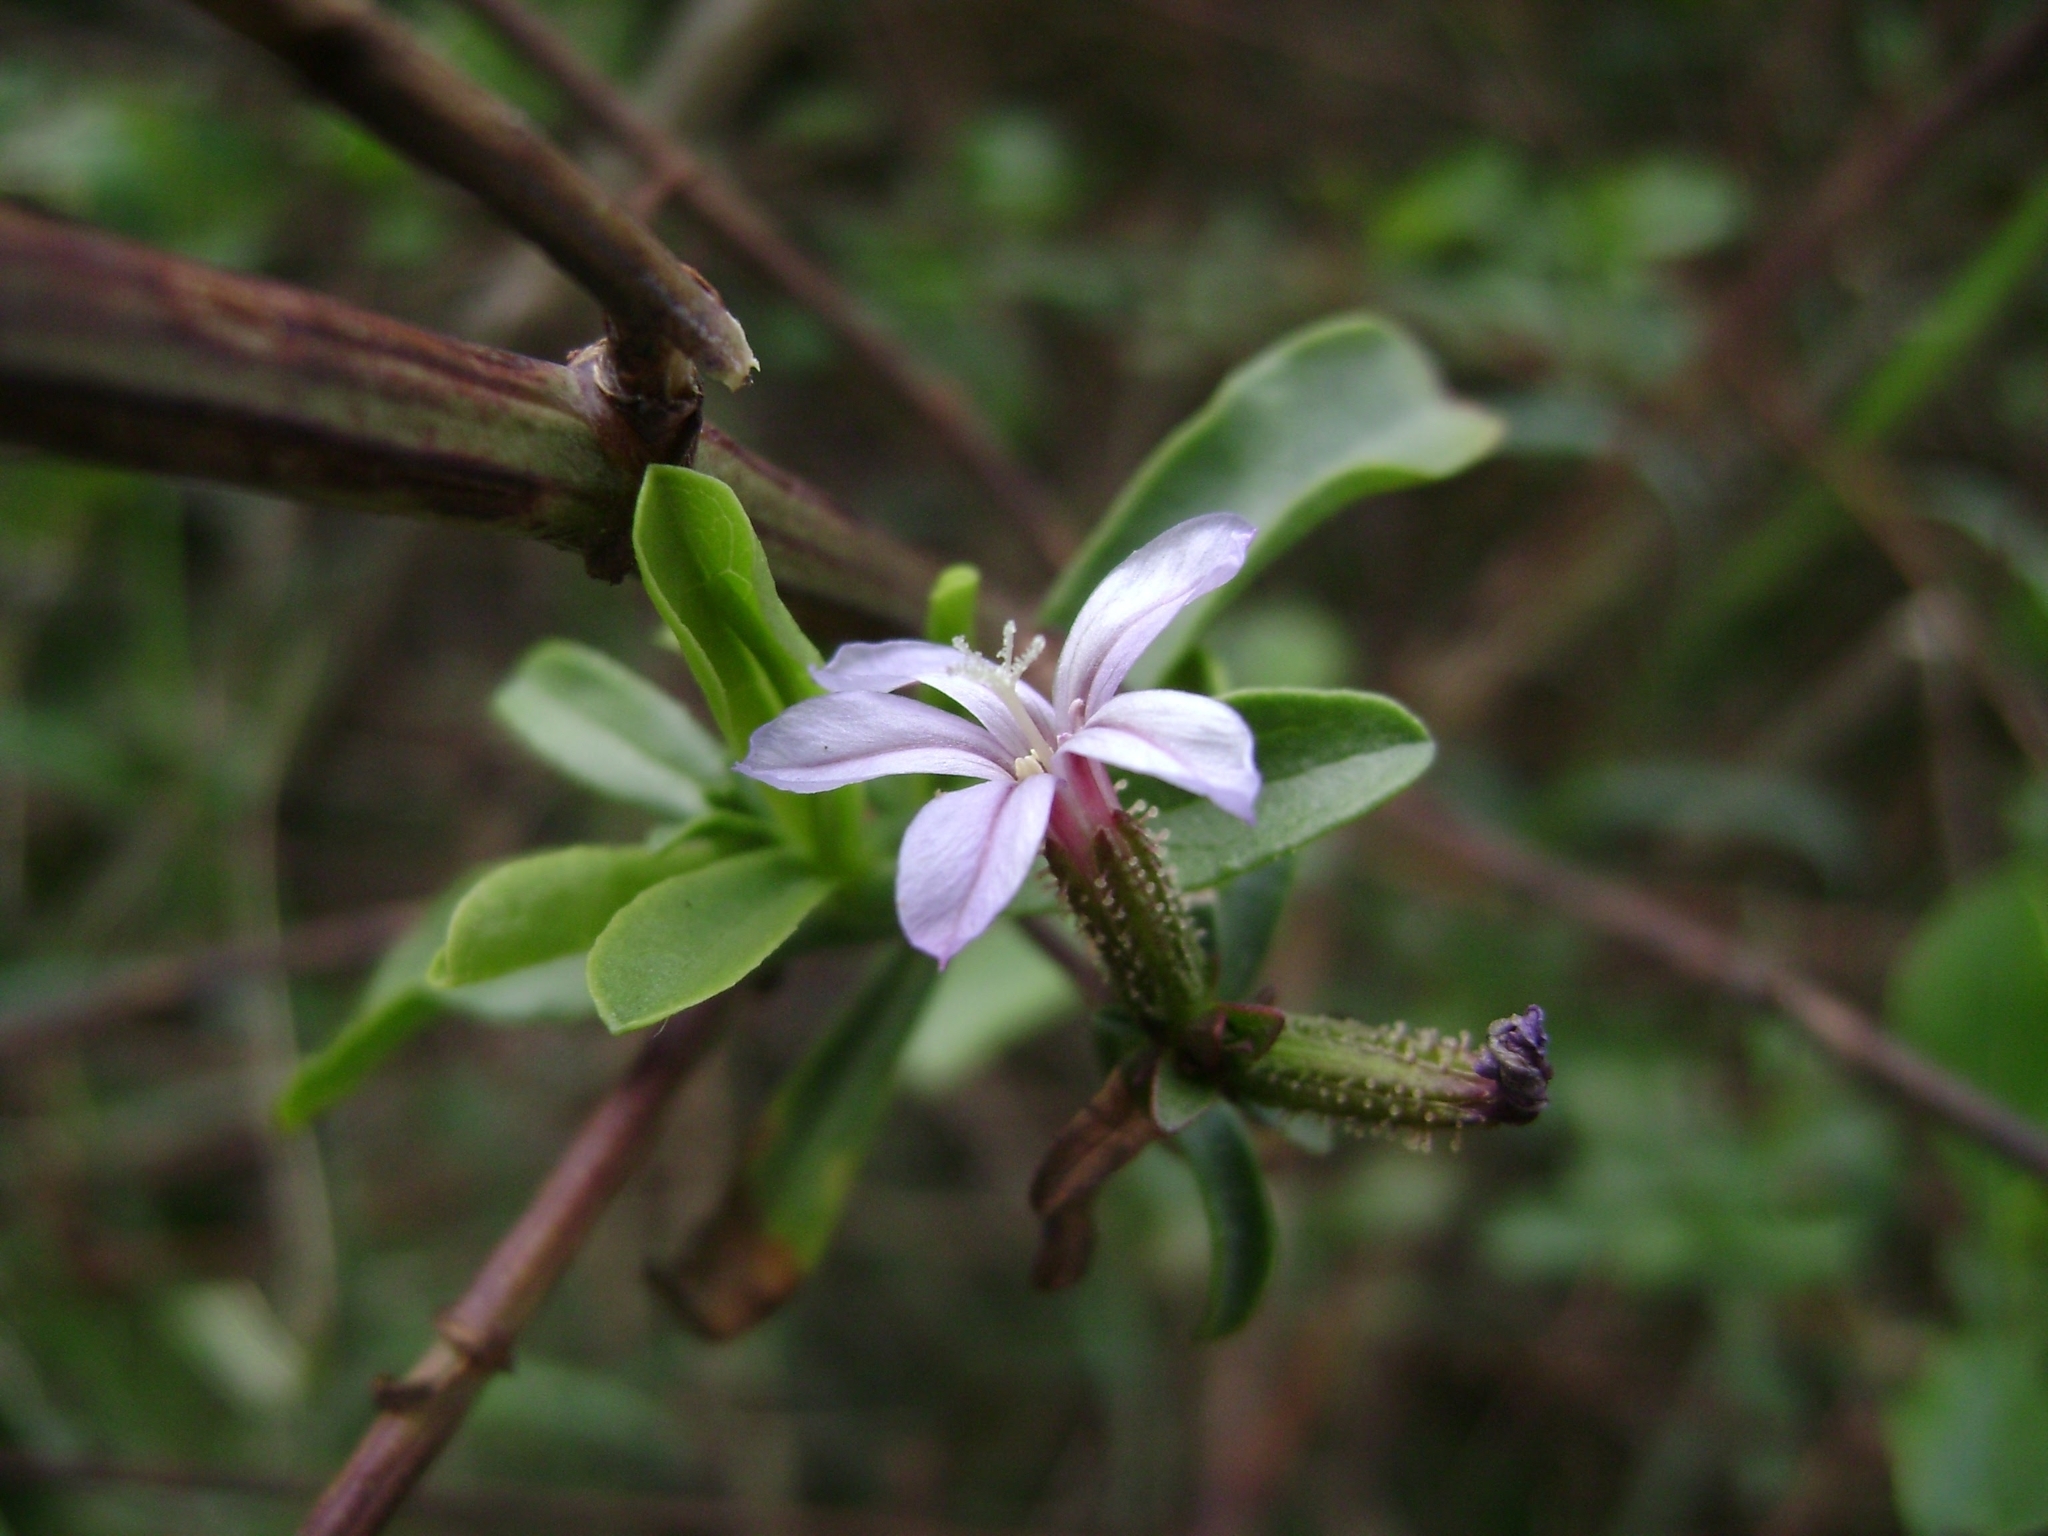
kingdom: Plantae
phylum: Tracheophyta
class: Magnoliopsida
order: Caryophyllales
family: Plumbaginaceae
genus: Plumbago
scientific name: Plumbago europaea
